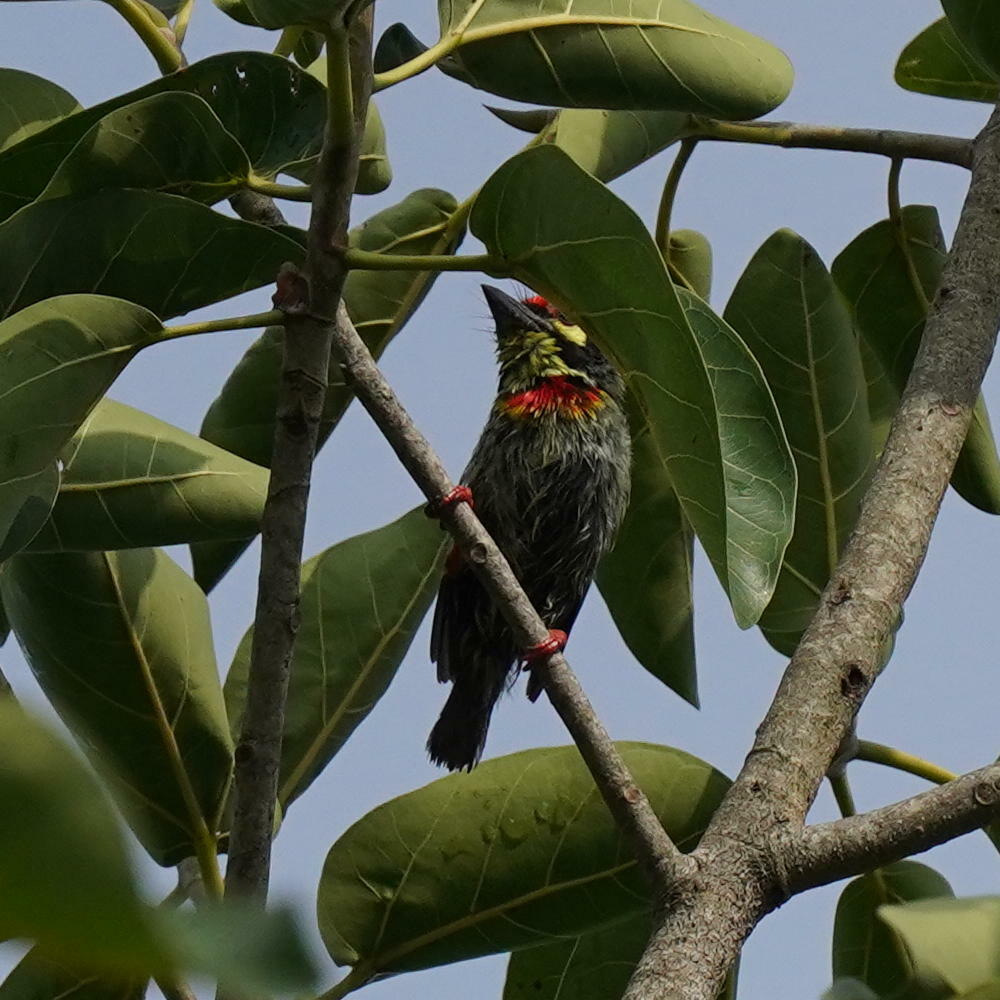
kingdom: Animalia
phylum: Chordata
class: Aves
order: Piciformes
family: Megalaimidae
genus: Psilopogon
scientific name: Psilopogon haemacephalus
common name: Coppersmith barbet
